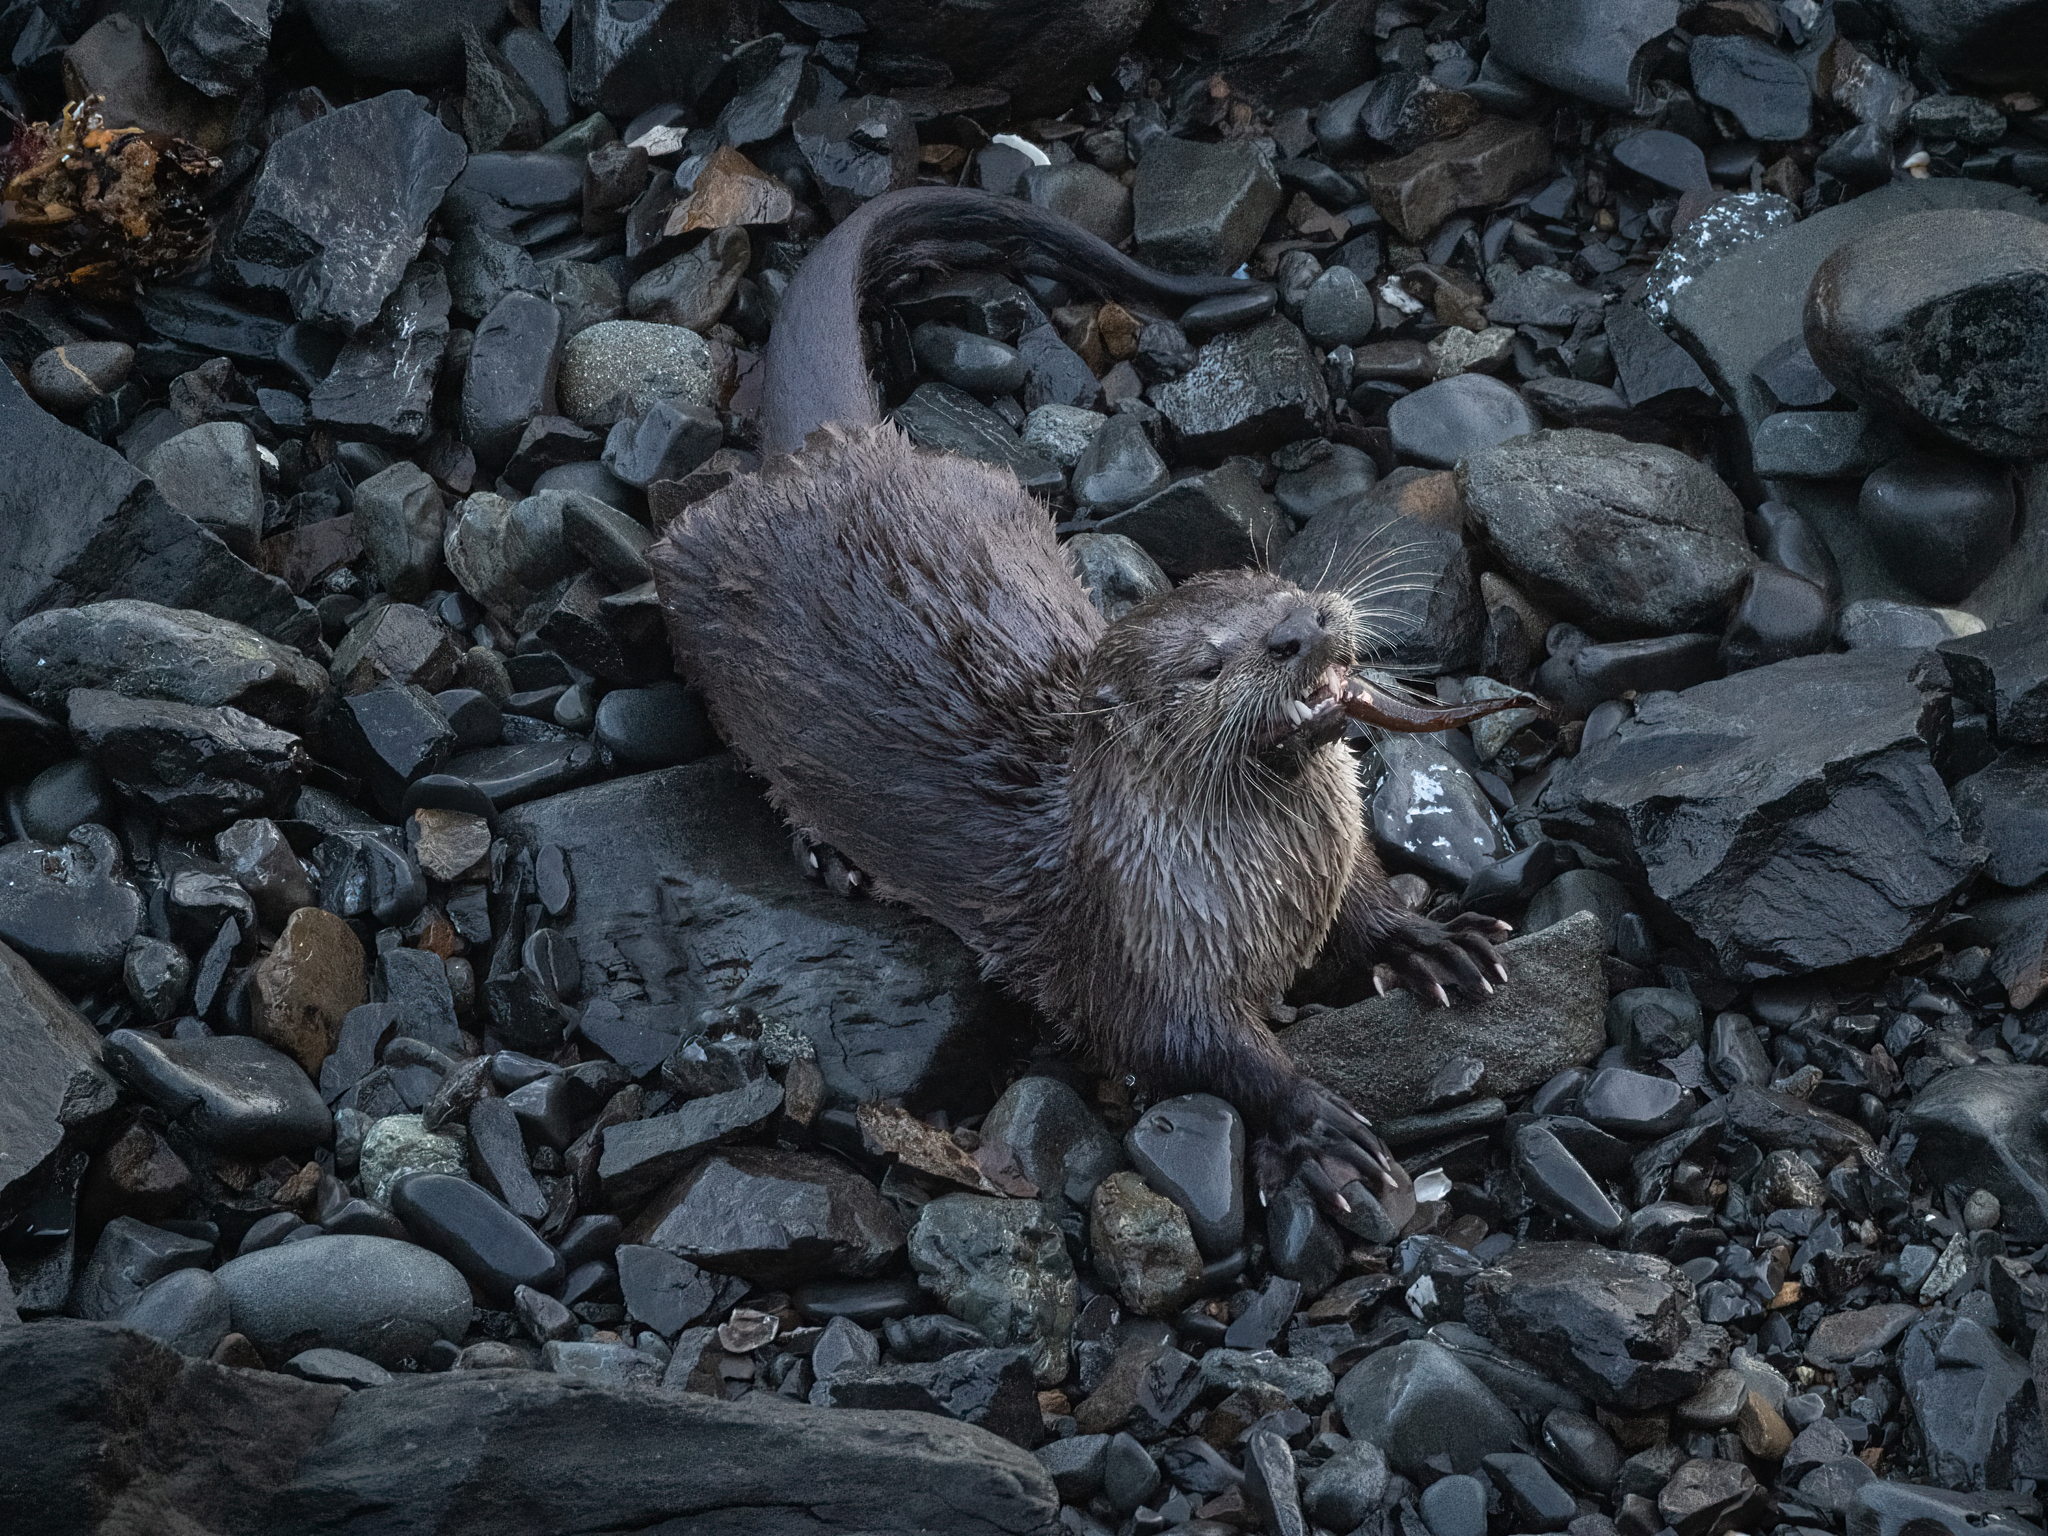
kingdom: Animalia
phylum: Chordata
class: Mammalia
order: Carnivora
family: Mustelidae
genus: Lontra
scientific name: Lontra canadensis
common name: North american river otter
